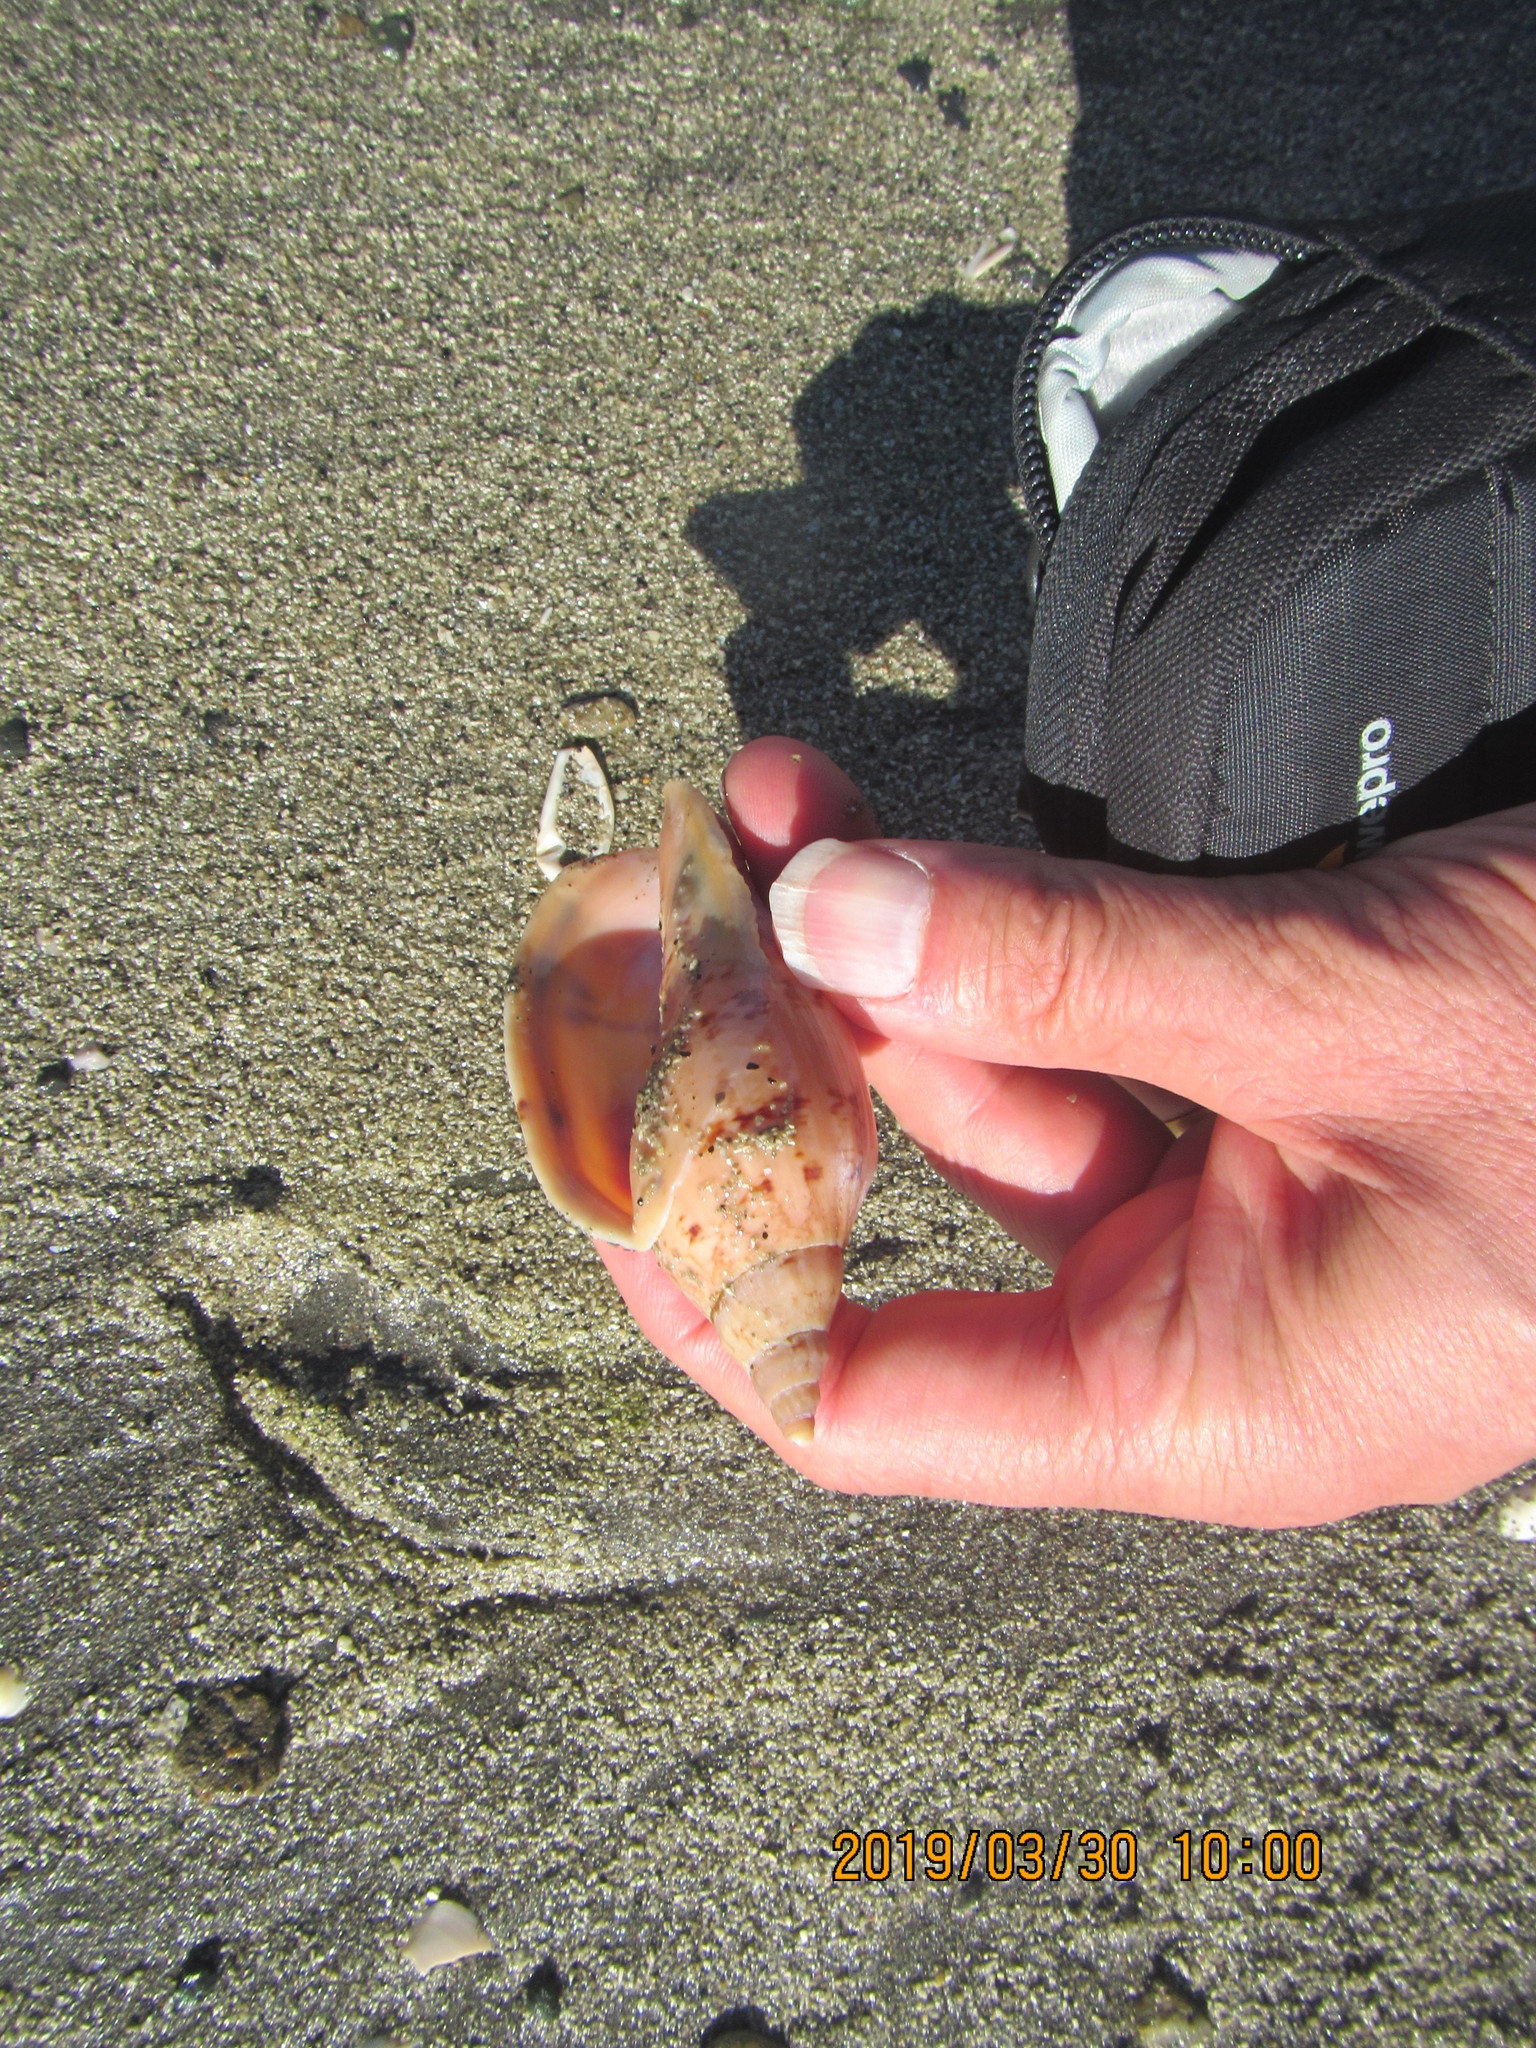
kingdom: Animalia
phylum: Mollusca
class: Gastropoda
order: Neogastropoda
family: Volutidae
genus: Alcithoe
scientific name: Alcithoe arabica
